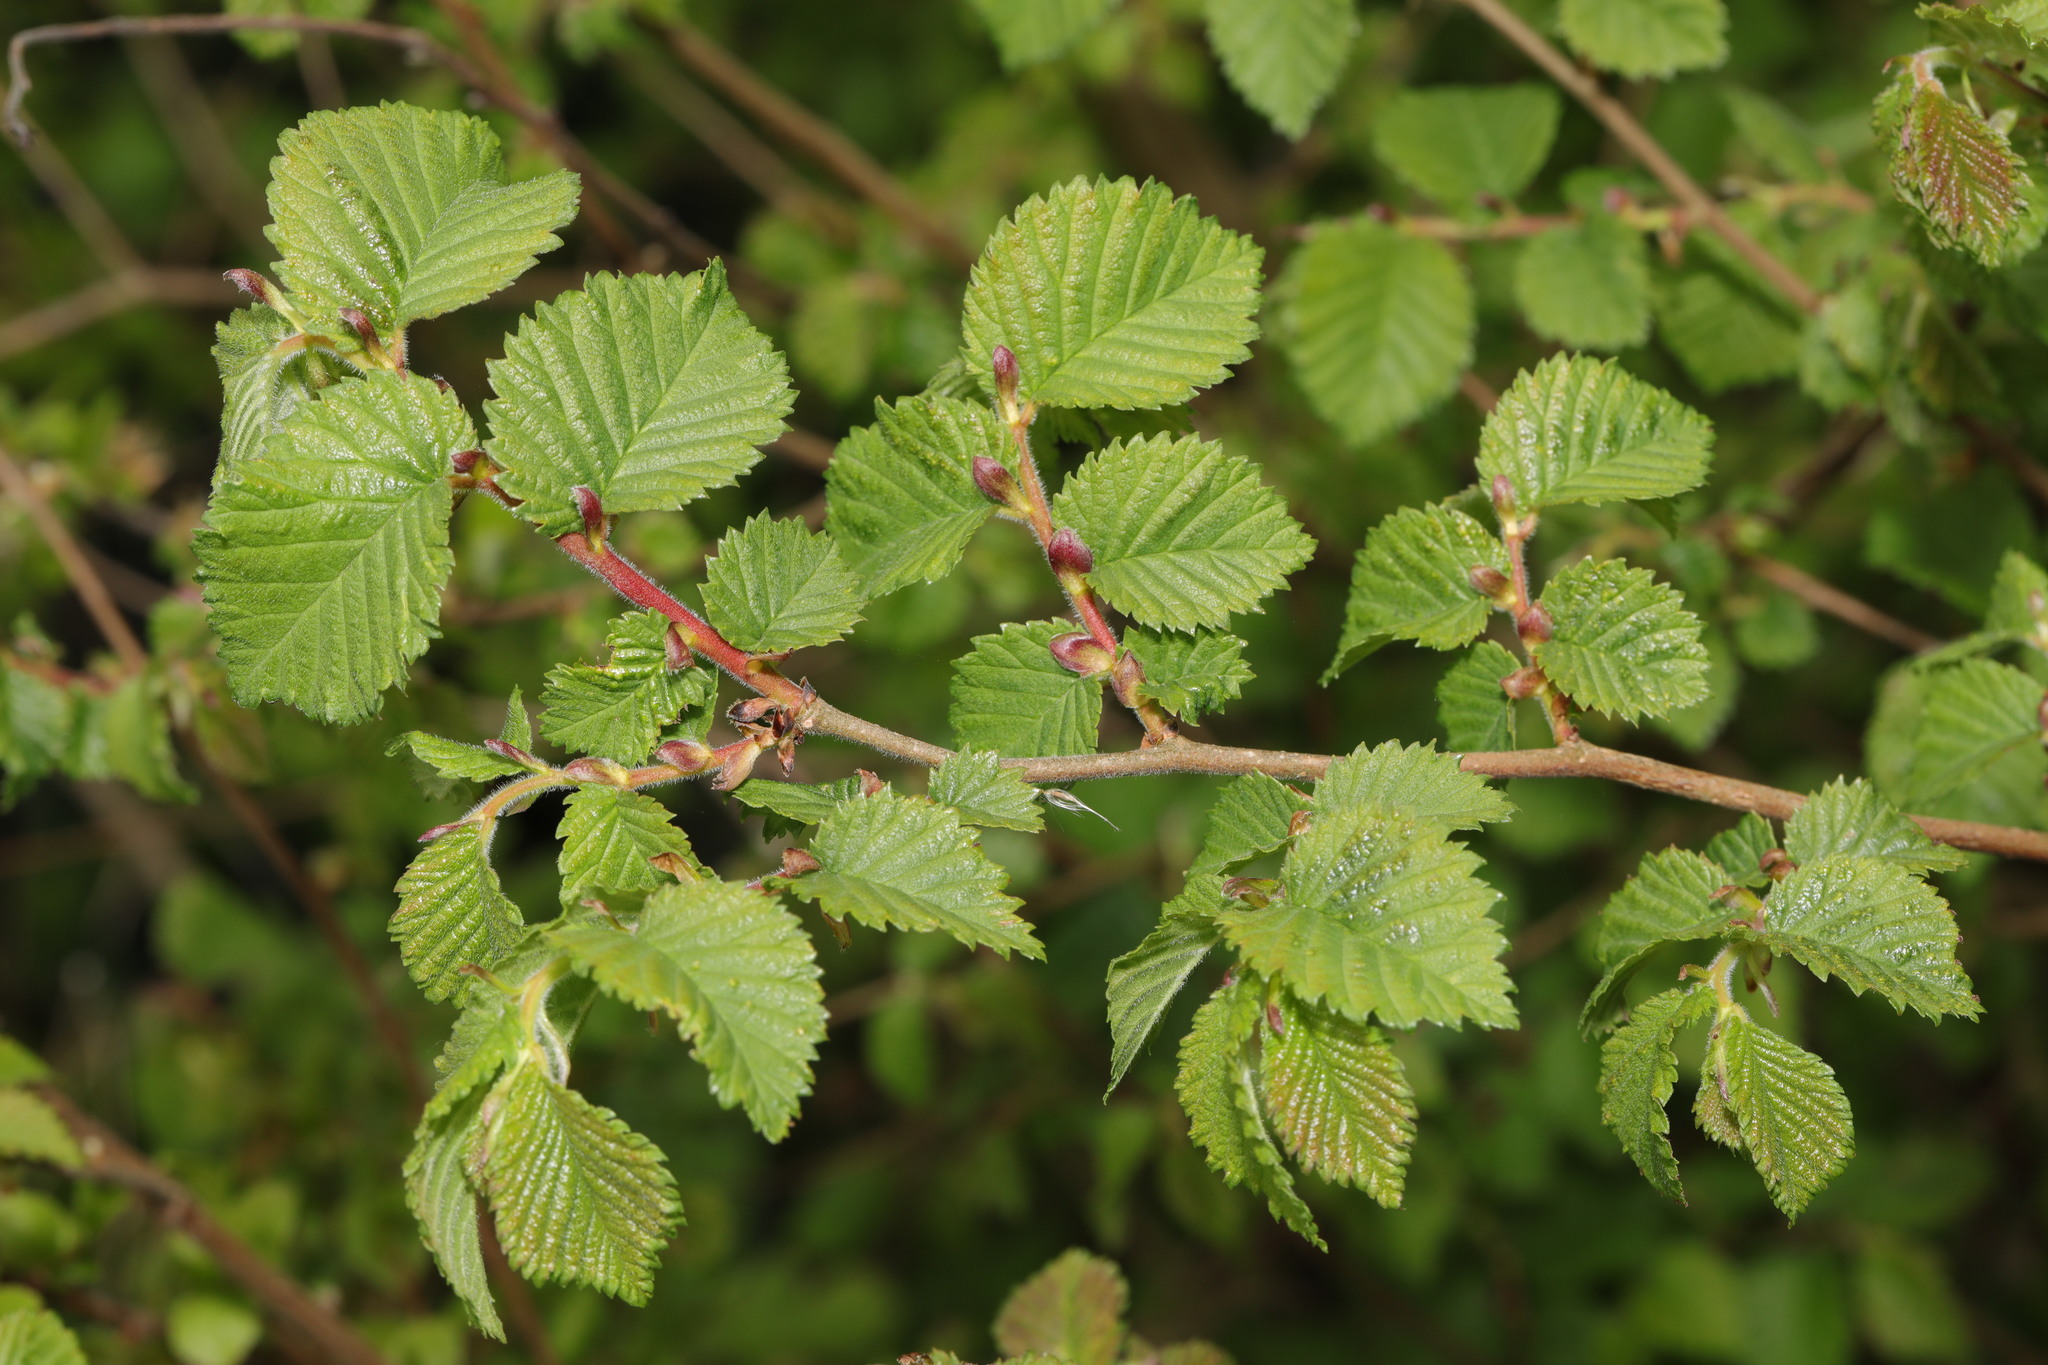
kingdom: Plantae
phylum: Tracheophyta
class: Magnoliopsida
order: Rosales
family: Ulmaceae
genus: Ulmus
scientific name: Ulmus minor
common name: Small-leaved elm
